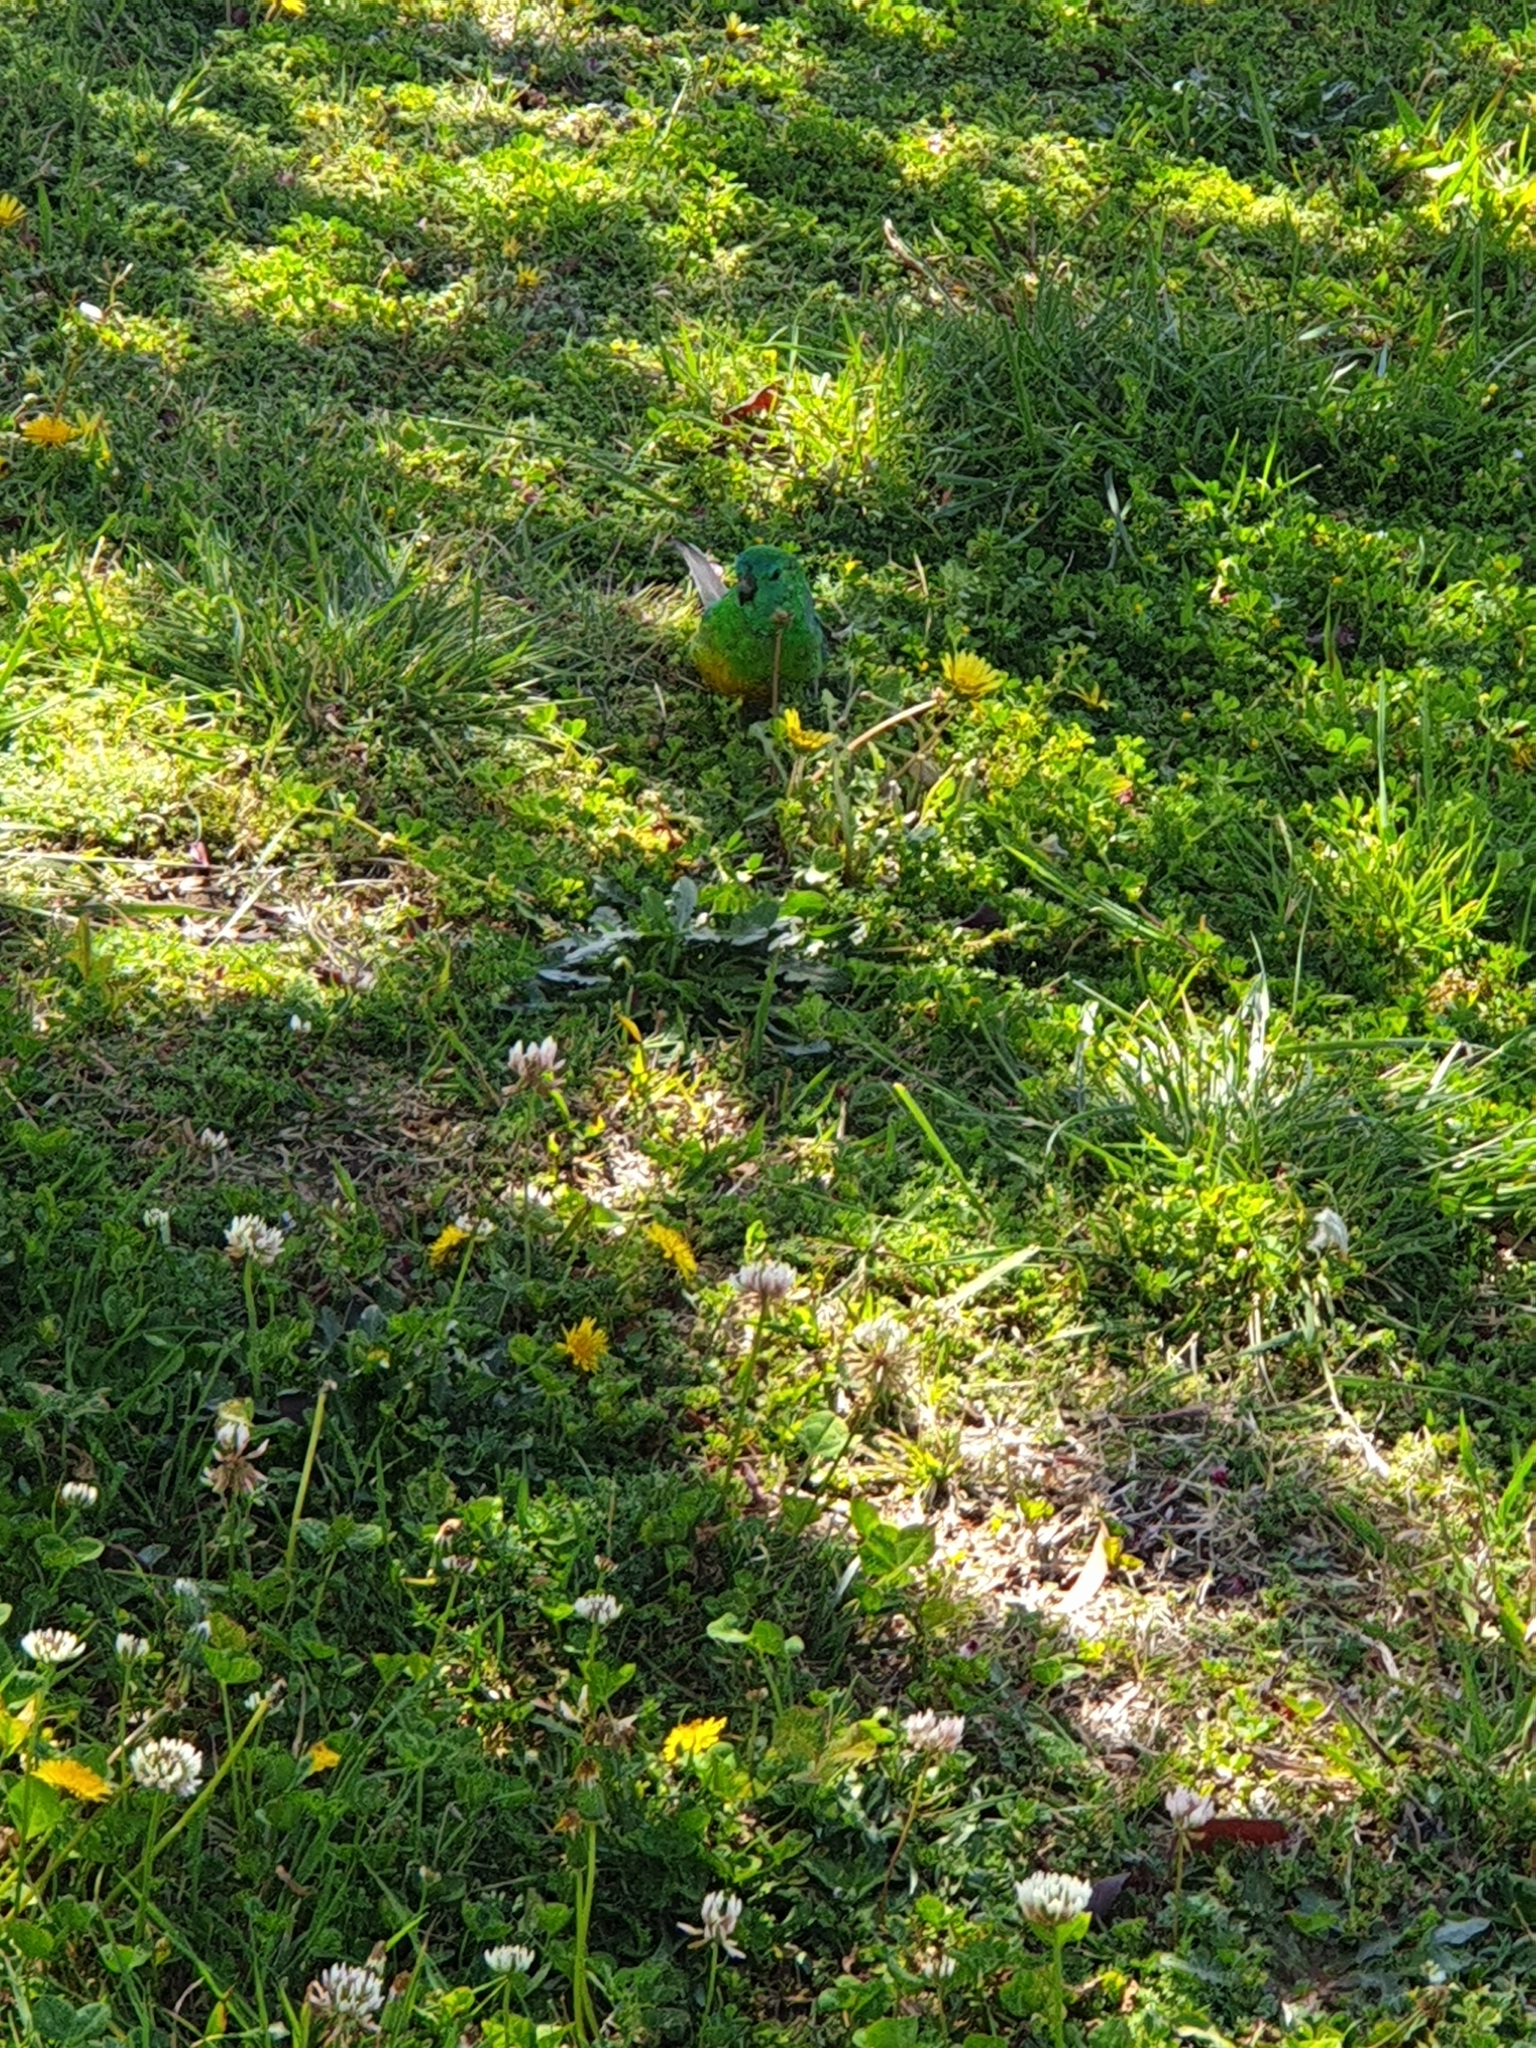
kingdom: Animalia
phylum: Chordata
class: Aves
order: Psittaciformes
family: Psittacidae
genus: Psephotus
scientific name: Psephotus haematonotus
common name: Red-rumped parrot
